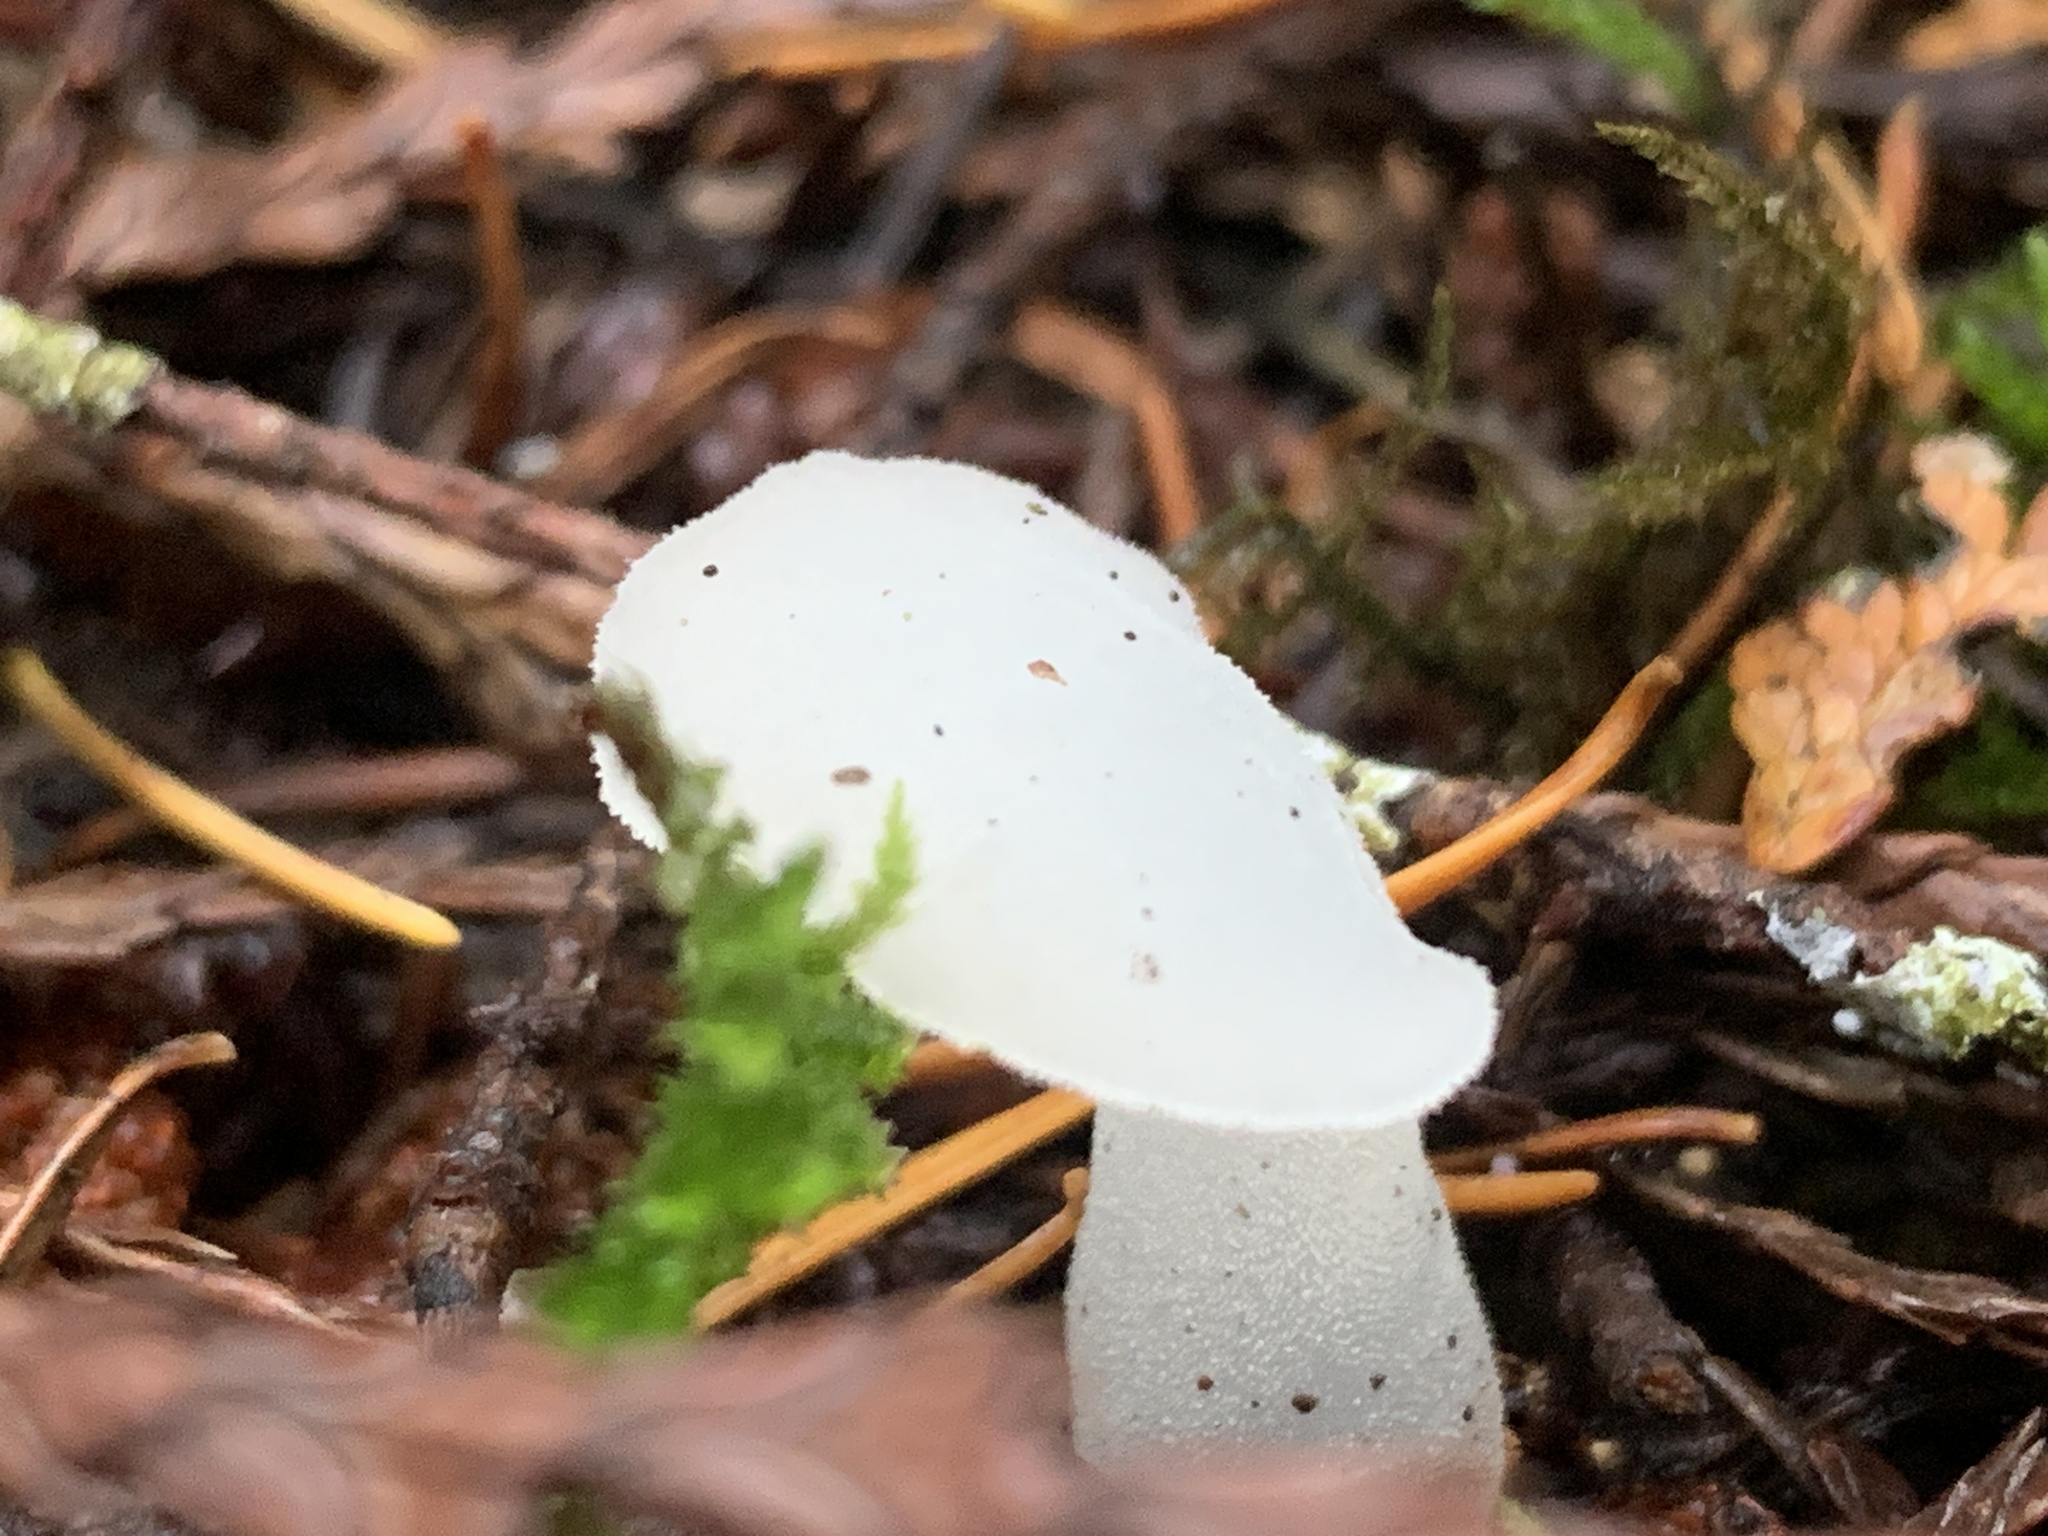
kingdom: Fungi
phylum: Basidiomycota
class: Agaricomycetes
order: Auriculariales
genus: Pseudohydnum
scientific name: Pseudohydnum gelatinosum
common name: Jelly tongue
